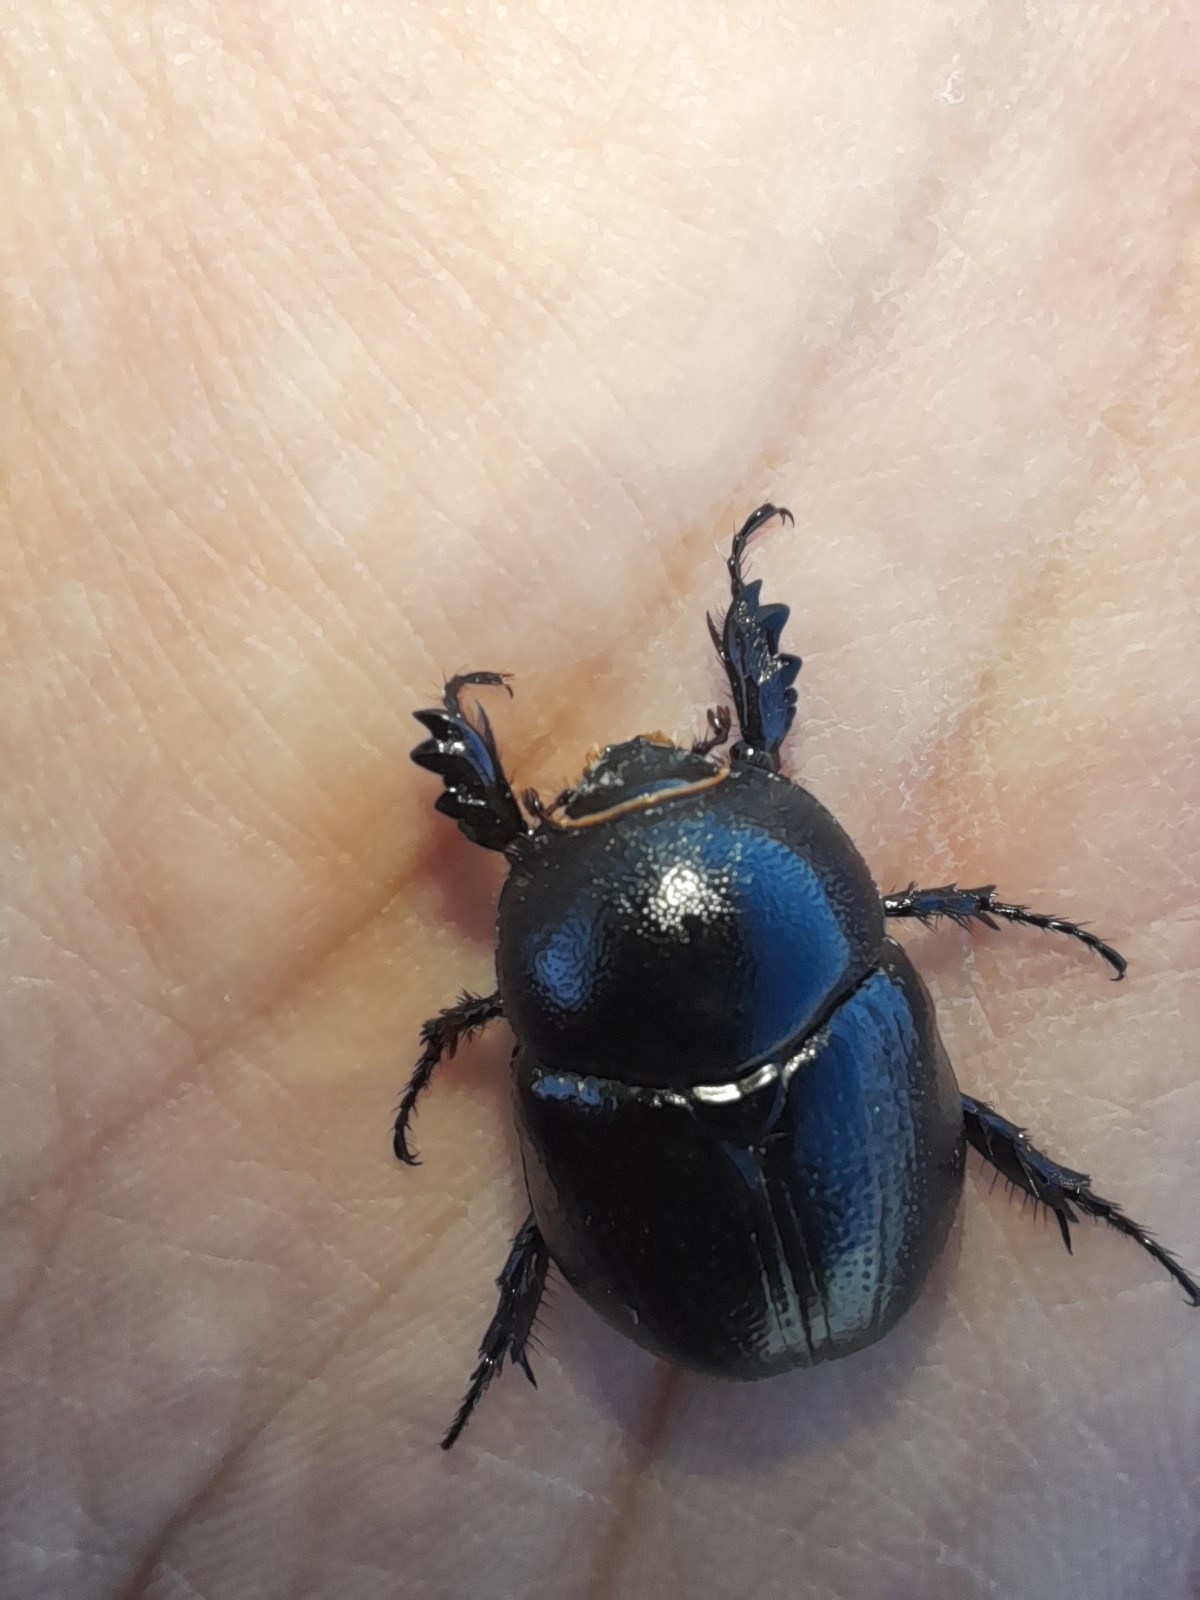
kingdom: Animalia
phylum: Arthropoda
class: Insecta
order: Coleoptera
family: Scarabaeidae
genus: Pentodon
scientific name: Pentodon bidens
